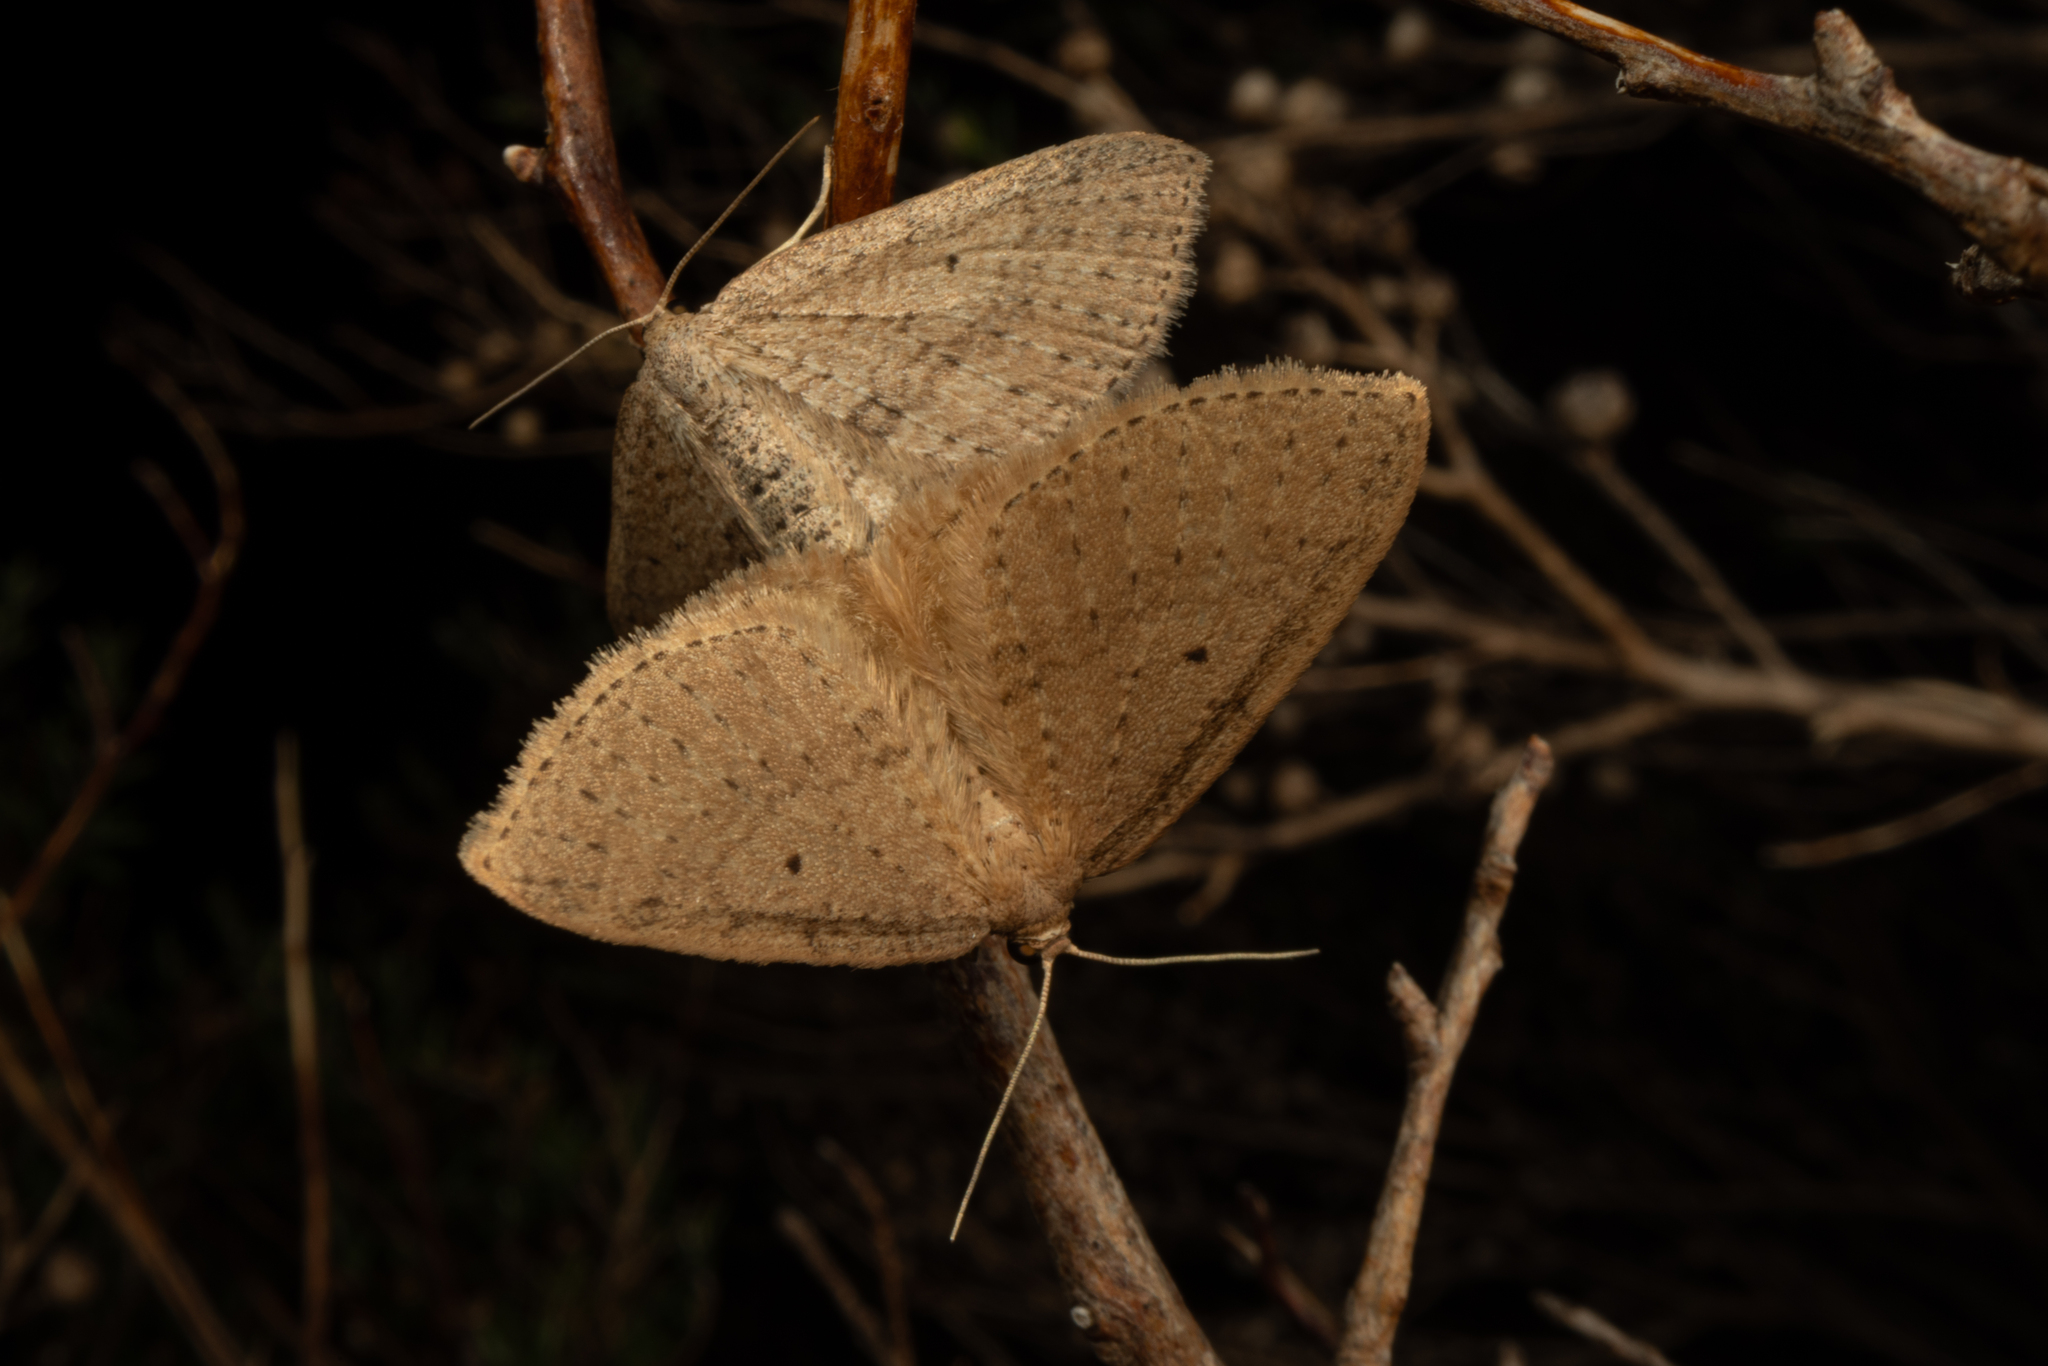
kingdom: Animalia
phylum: Arthropoda
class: Insecta
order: Lepidoptera
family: Geometridae
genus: Poecilasthena
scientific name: Poecilasthena schistaria
